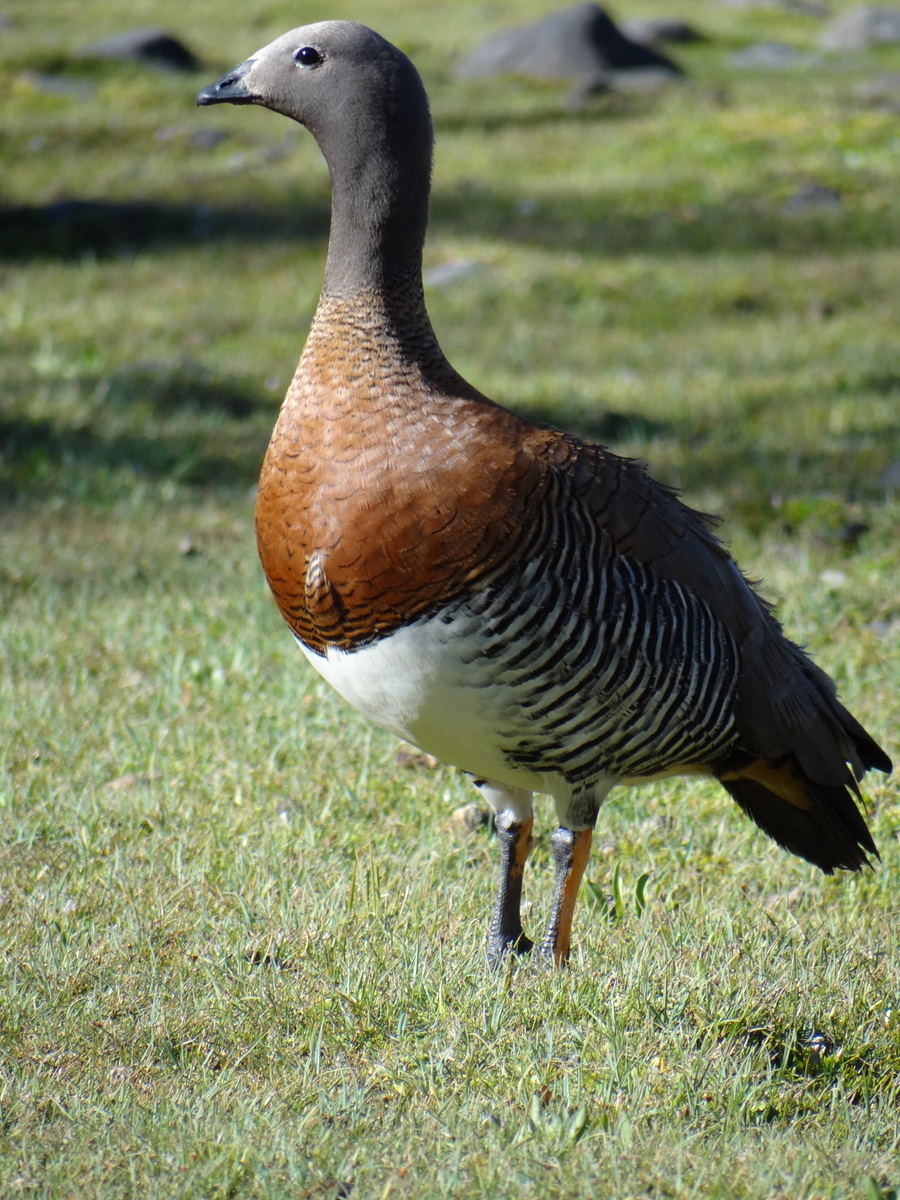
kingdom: Animalia
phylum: Chordata
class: Aves
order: Anseriformes
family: Anatidae
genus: Chloephaga
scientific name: Chloephaga poliocephala
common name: Ashy-headed goose
